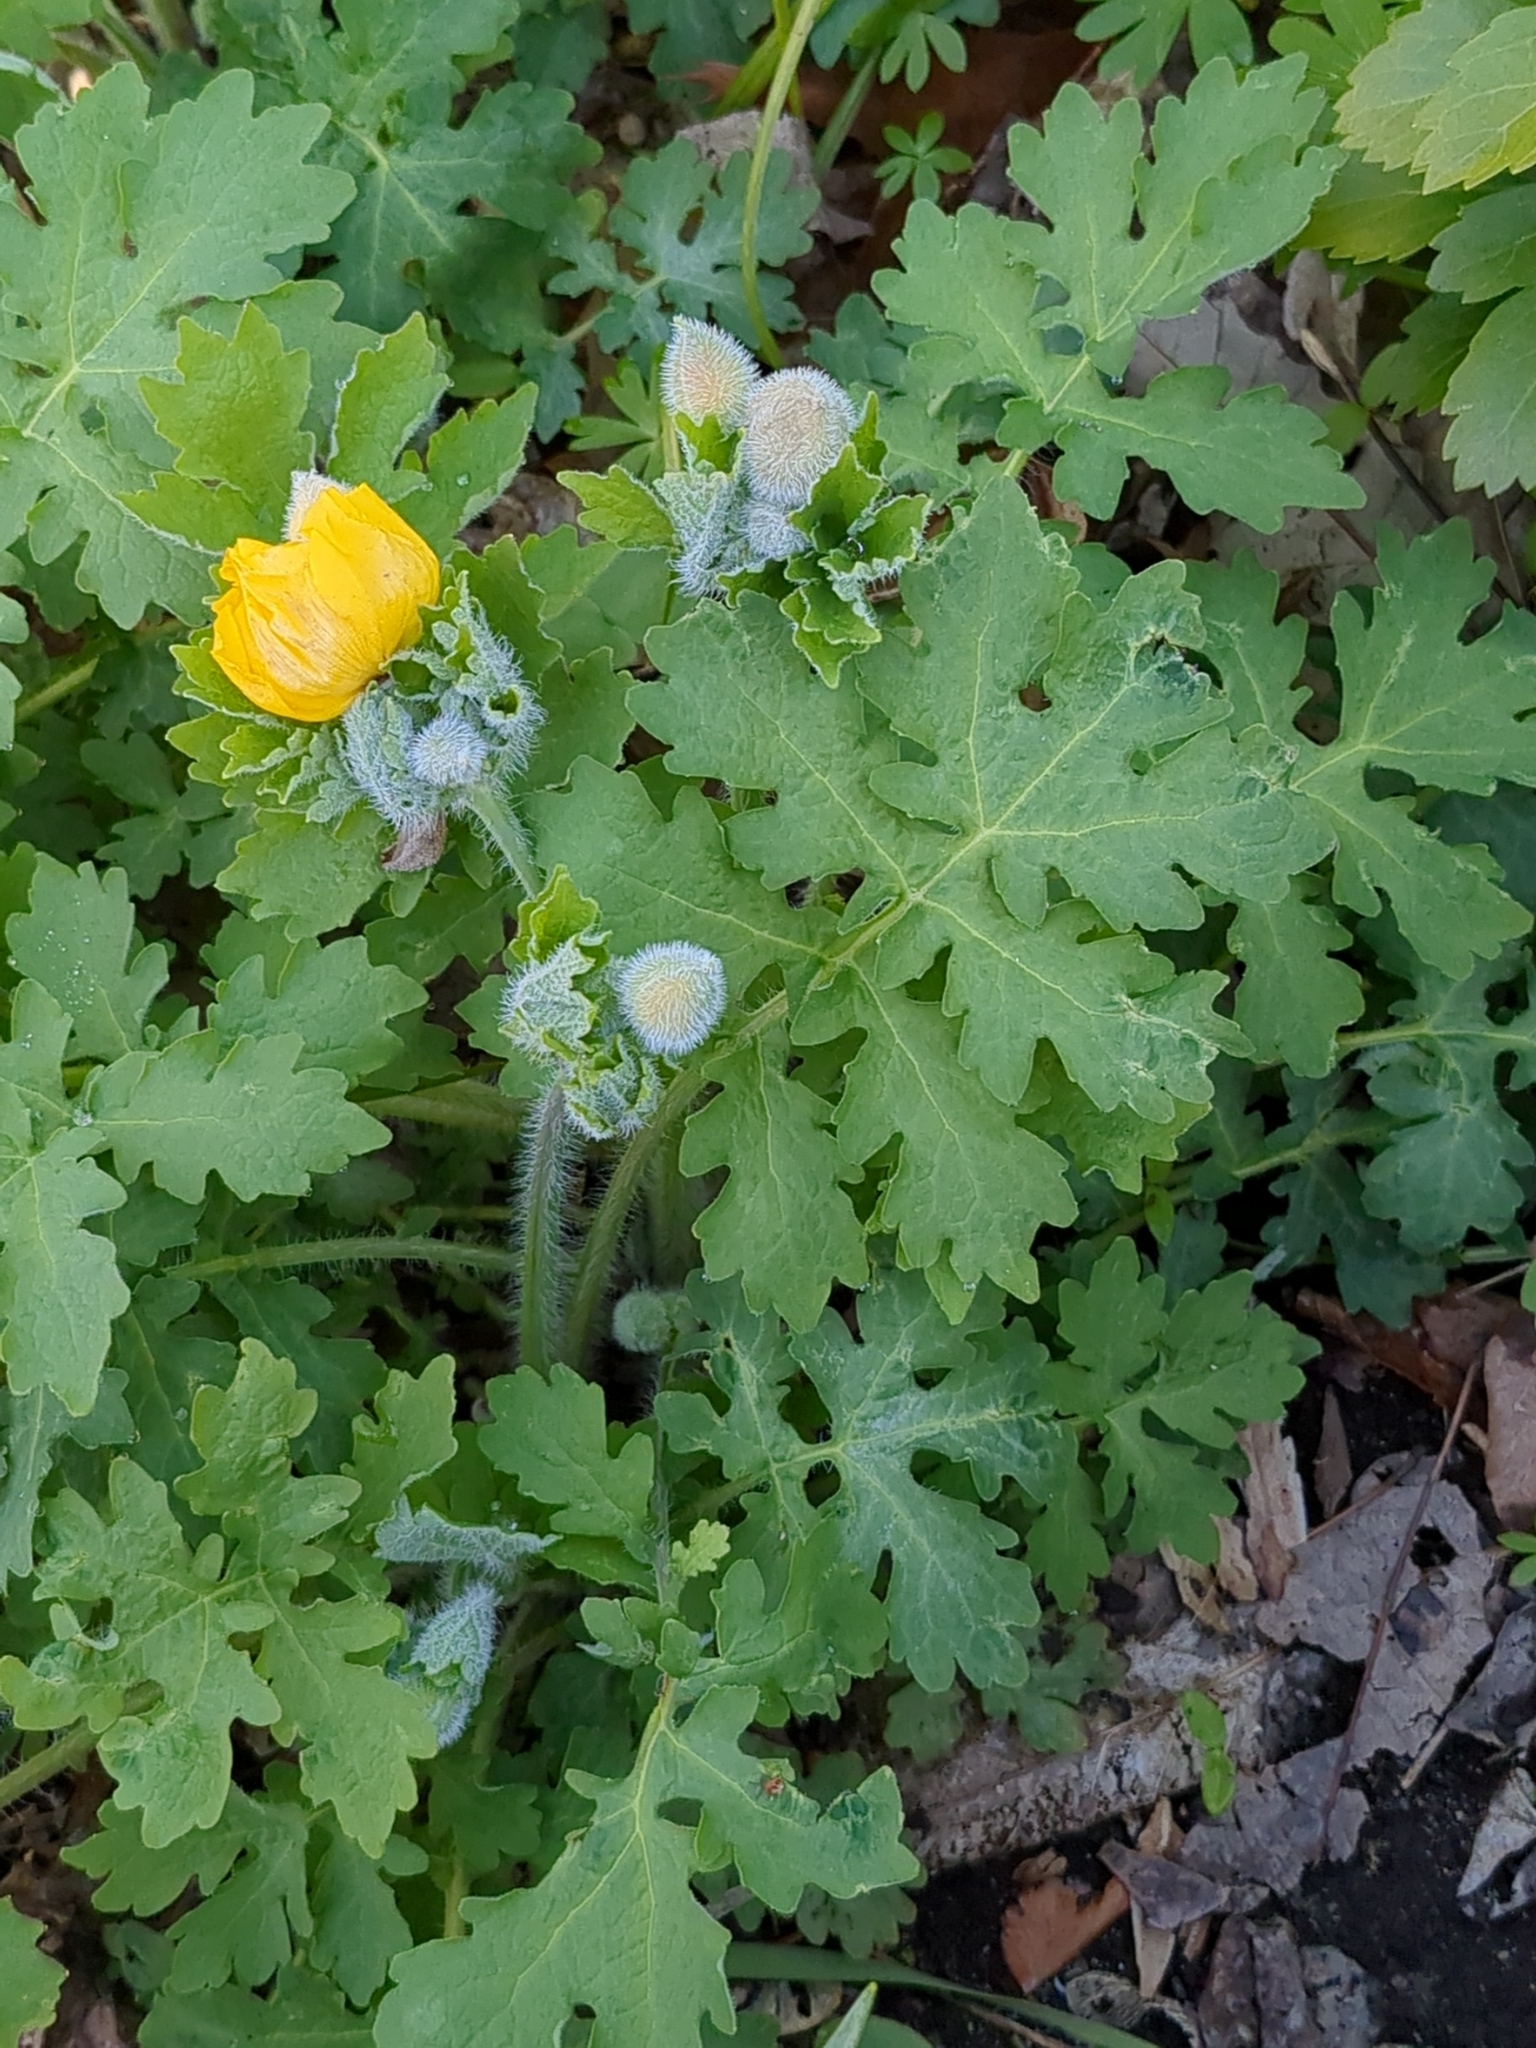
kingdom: Plantae
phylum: Tracheophyta
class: Magnoliopsida
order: Ranunculales
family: Papaveraceae
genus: Stylophorum
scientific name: Stylophorum diphyllum
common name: Celandine poppy
